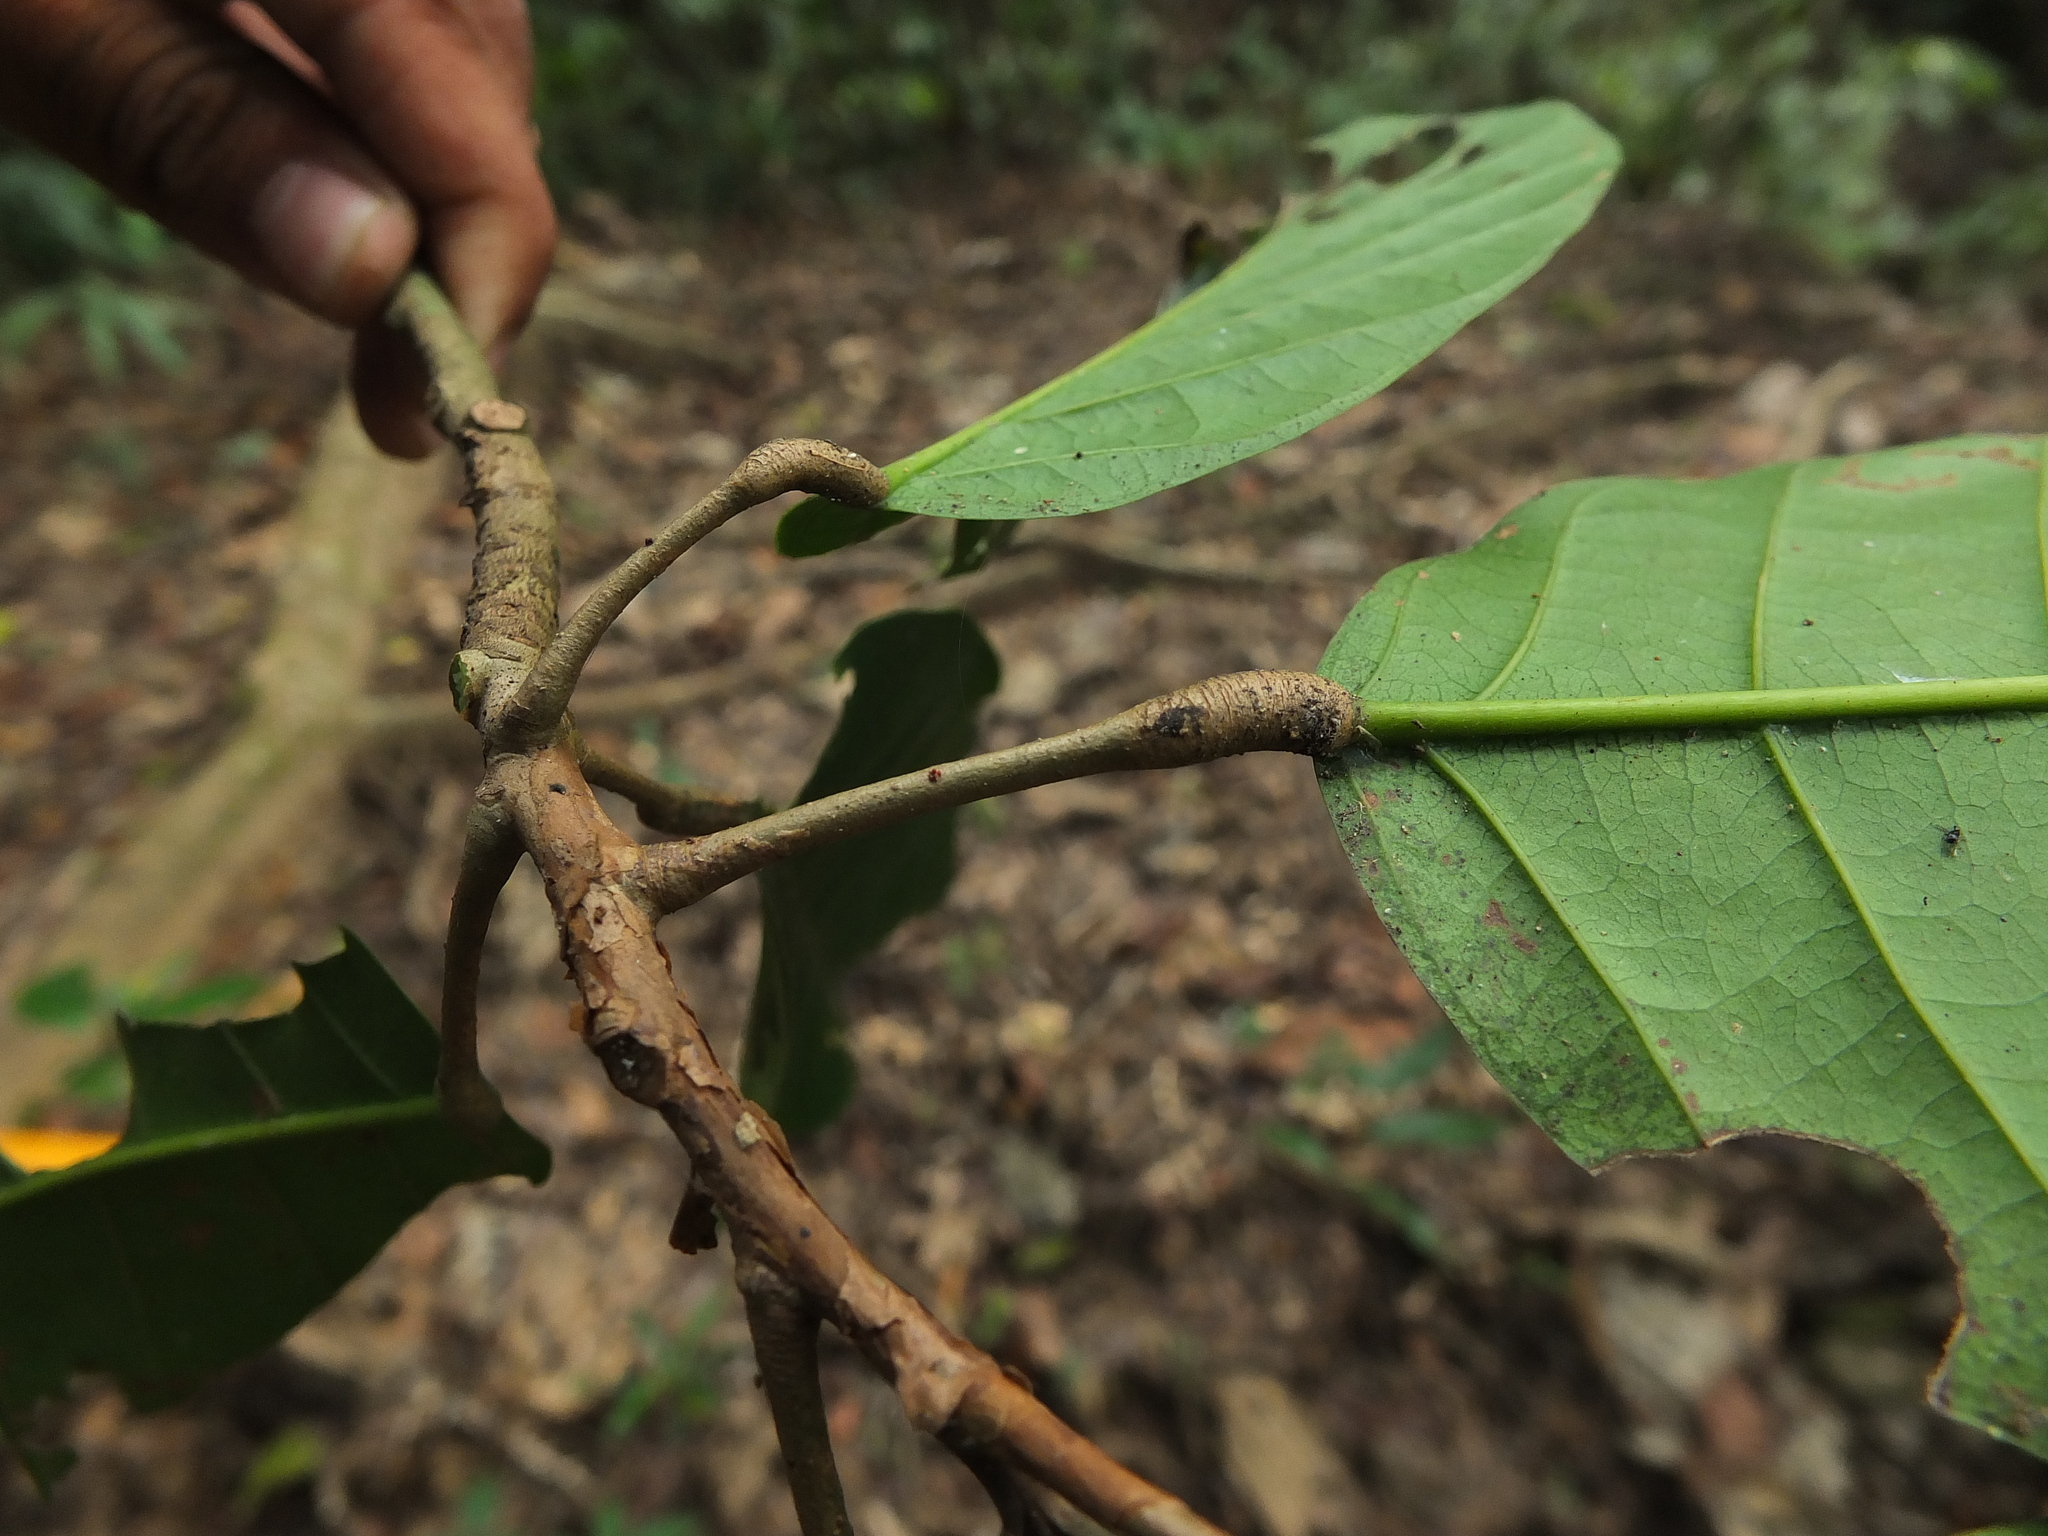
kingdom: Plantae
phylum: Tracheophyta
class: Magnoliopsida
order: Malvales
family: Dipterocarpaceae
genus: Vateria
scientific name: Vateria indica
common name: White dammar
